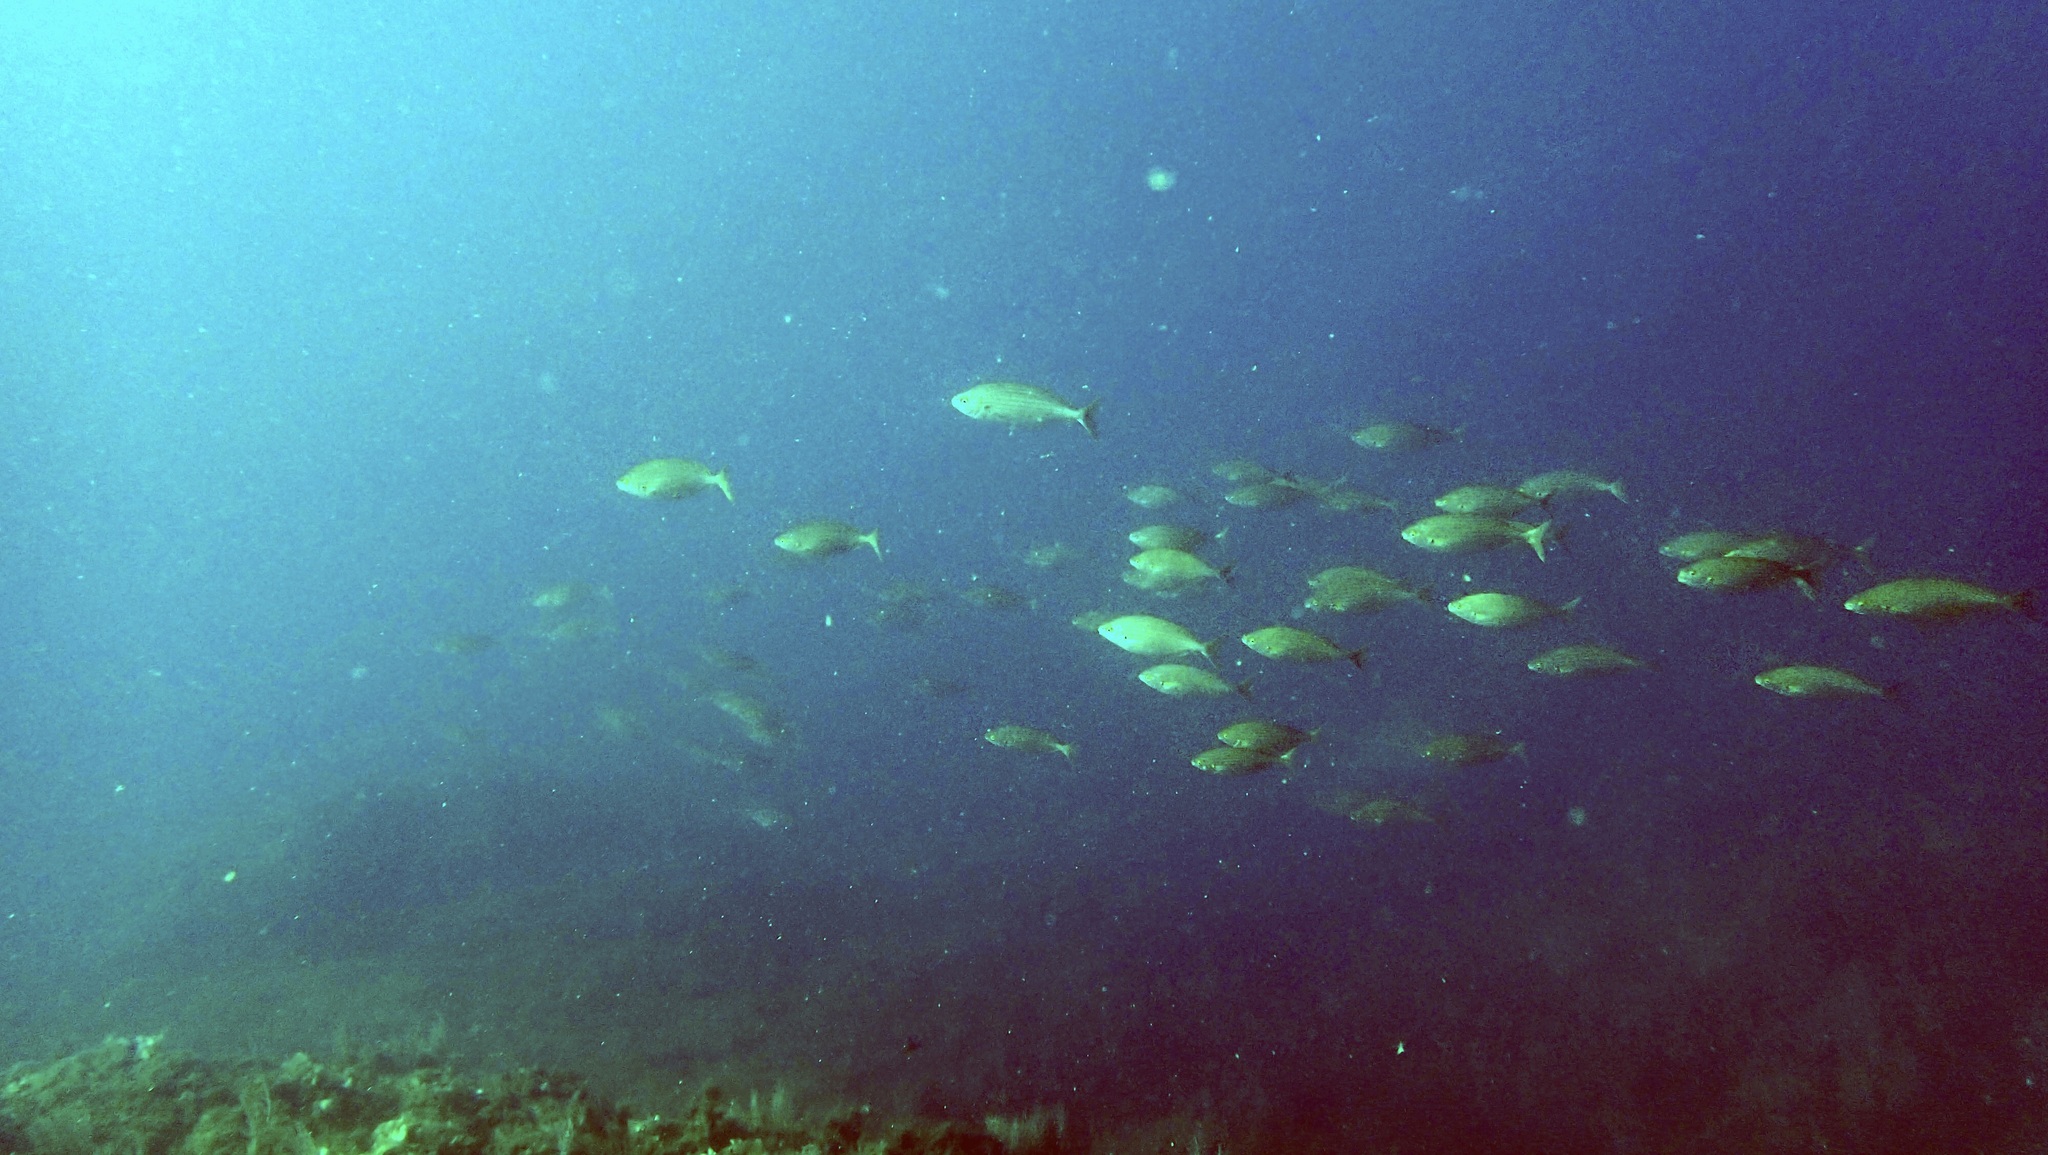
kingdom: Animalia
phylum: Chordata
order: Perciformes
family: Sparidae
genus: Sarpa
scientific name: Sarpa salpa
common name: Salema
